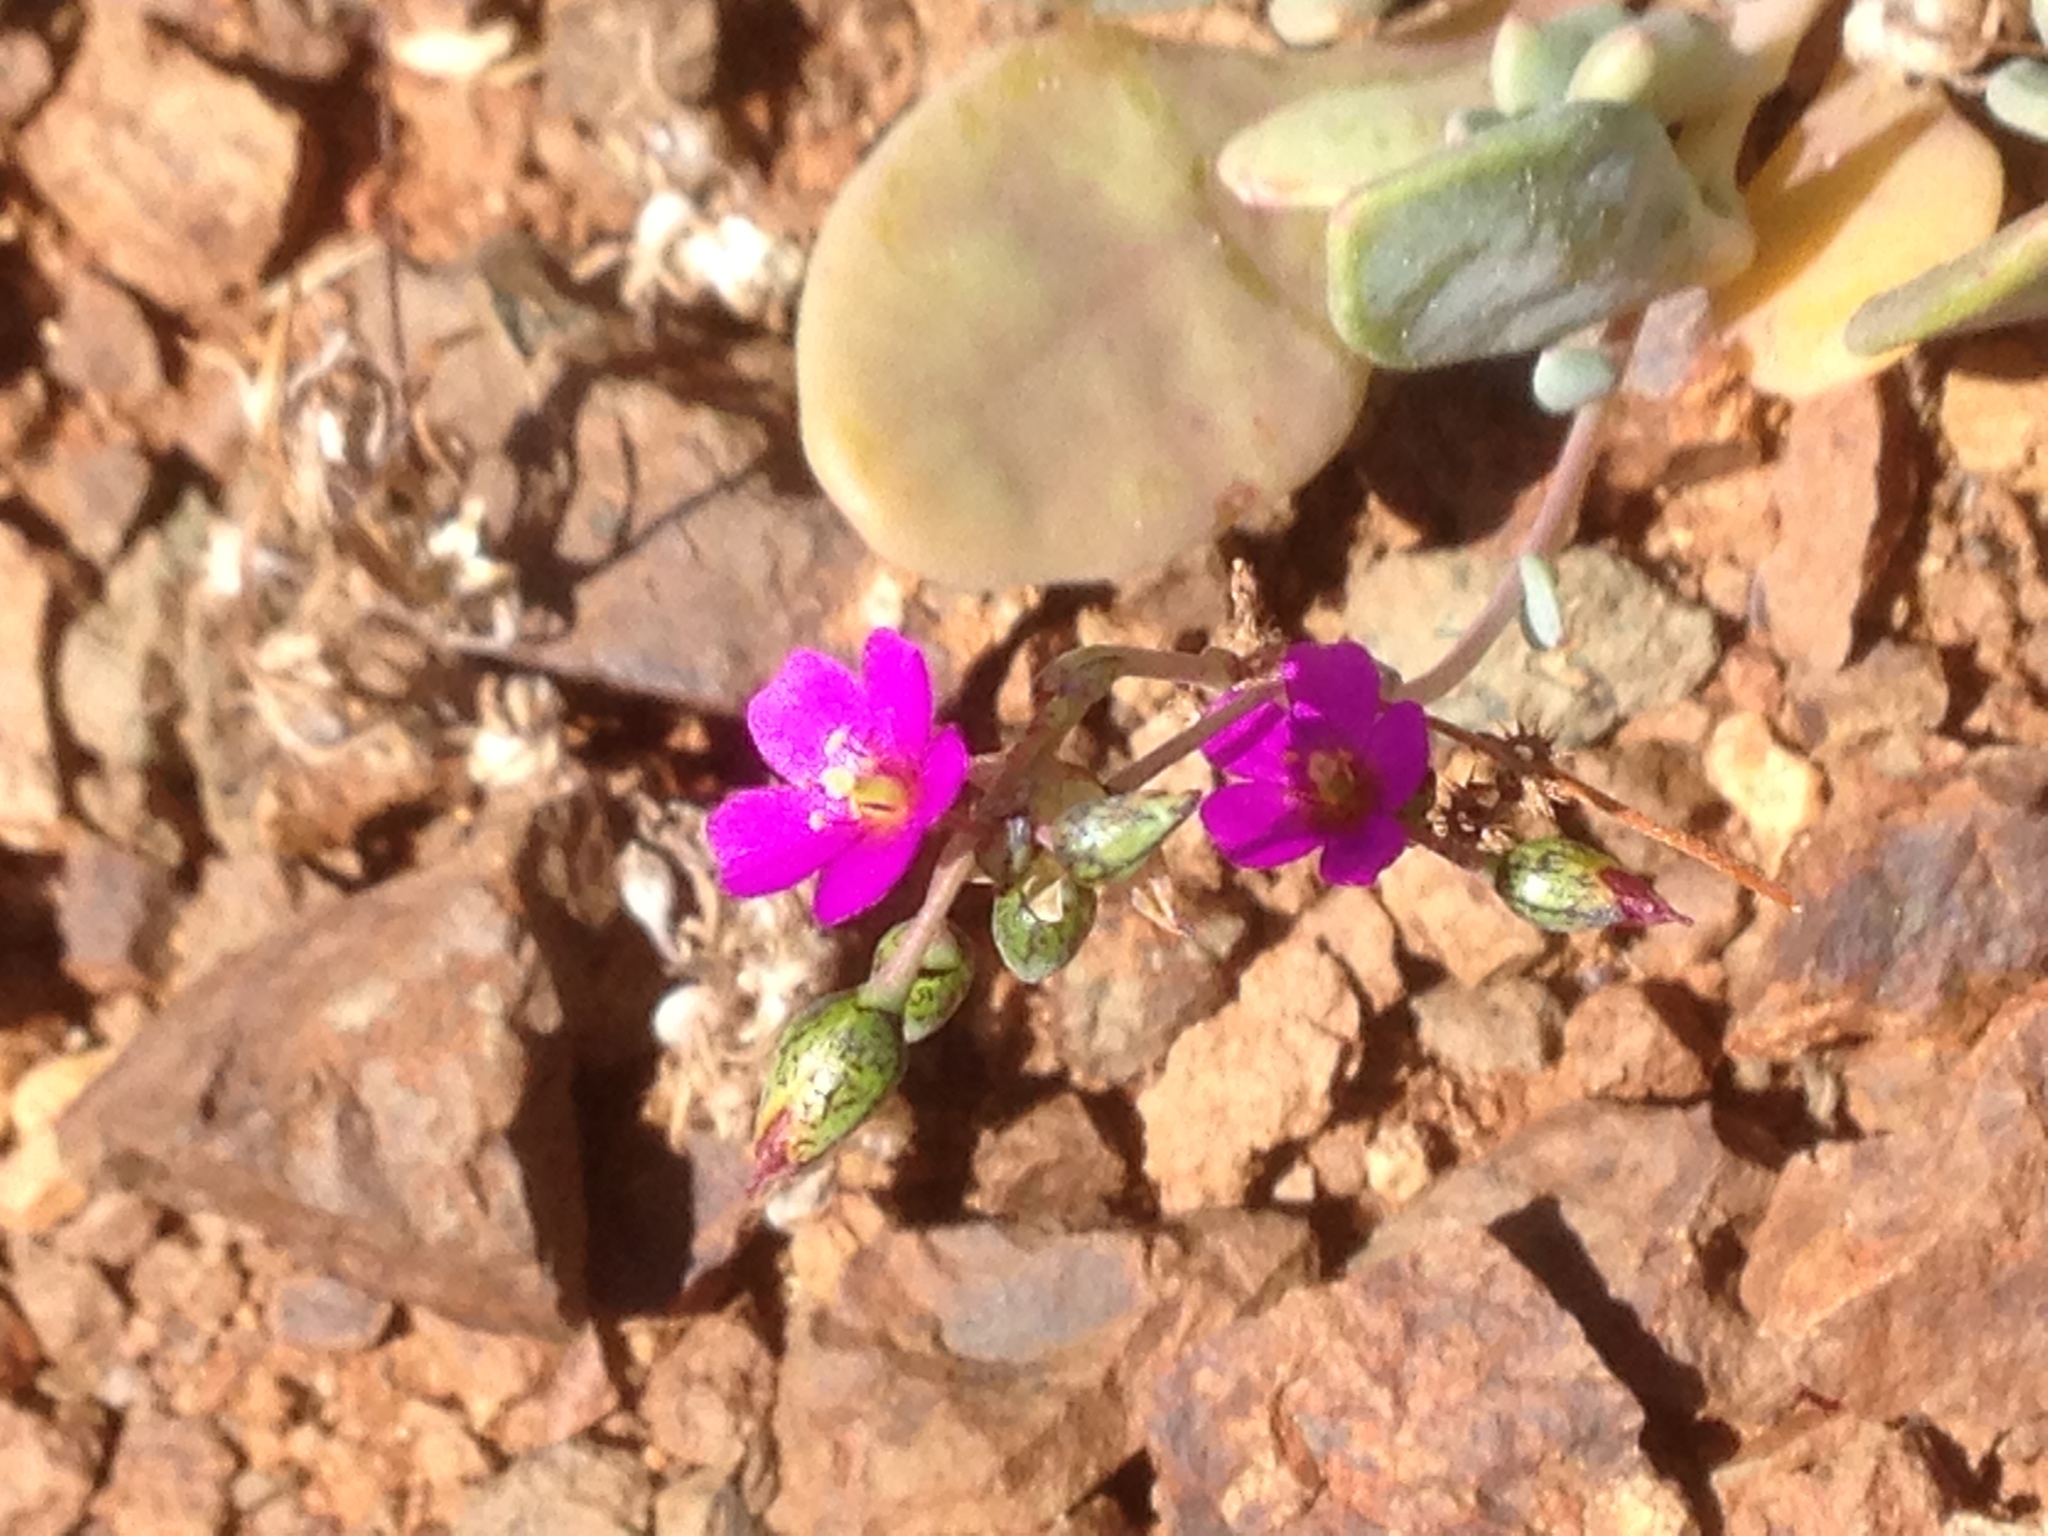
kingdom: Plantae
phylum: Tracheophyta
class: Magnoliopsida
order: Caryophyllales
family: Montiaceae
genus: Cistanthe
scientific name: Cistanthe maritima
